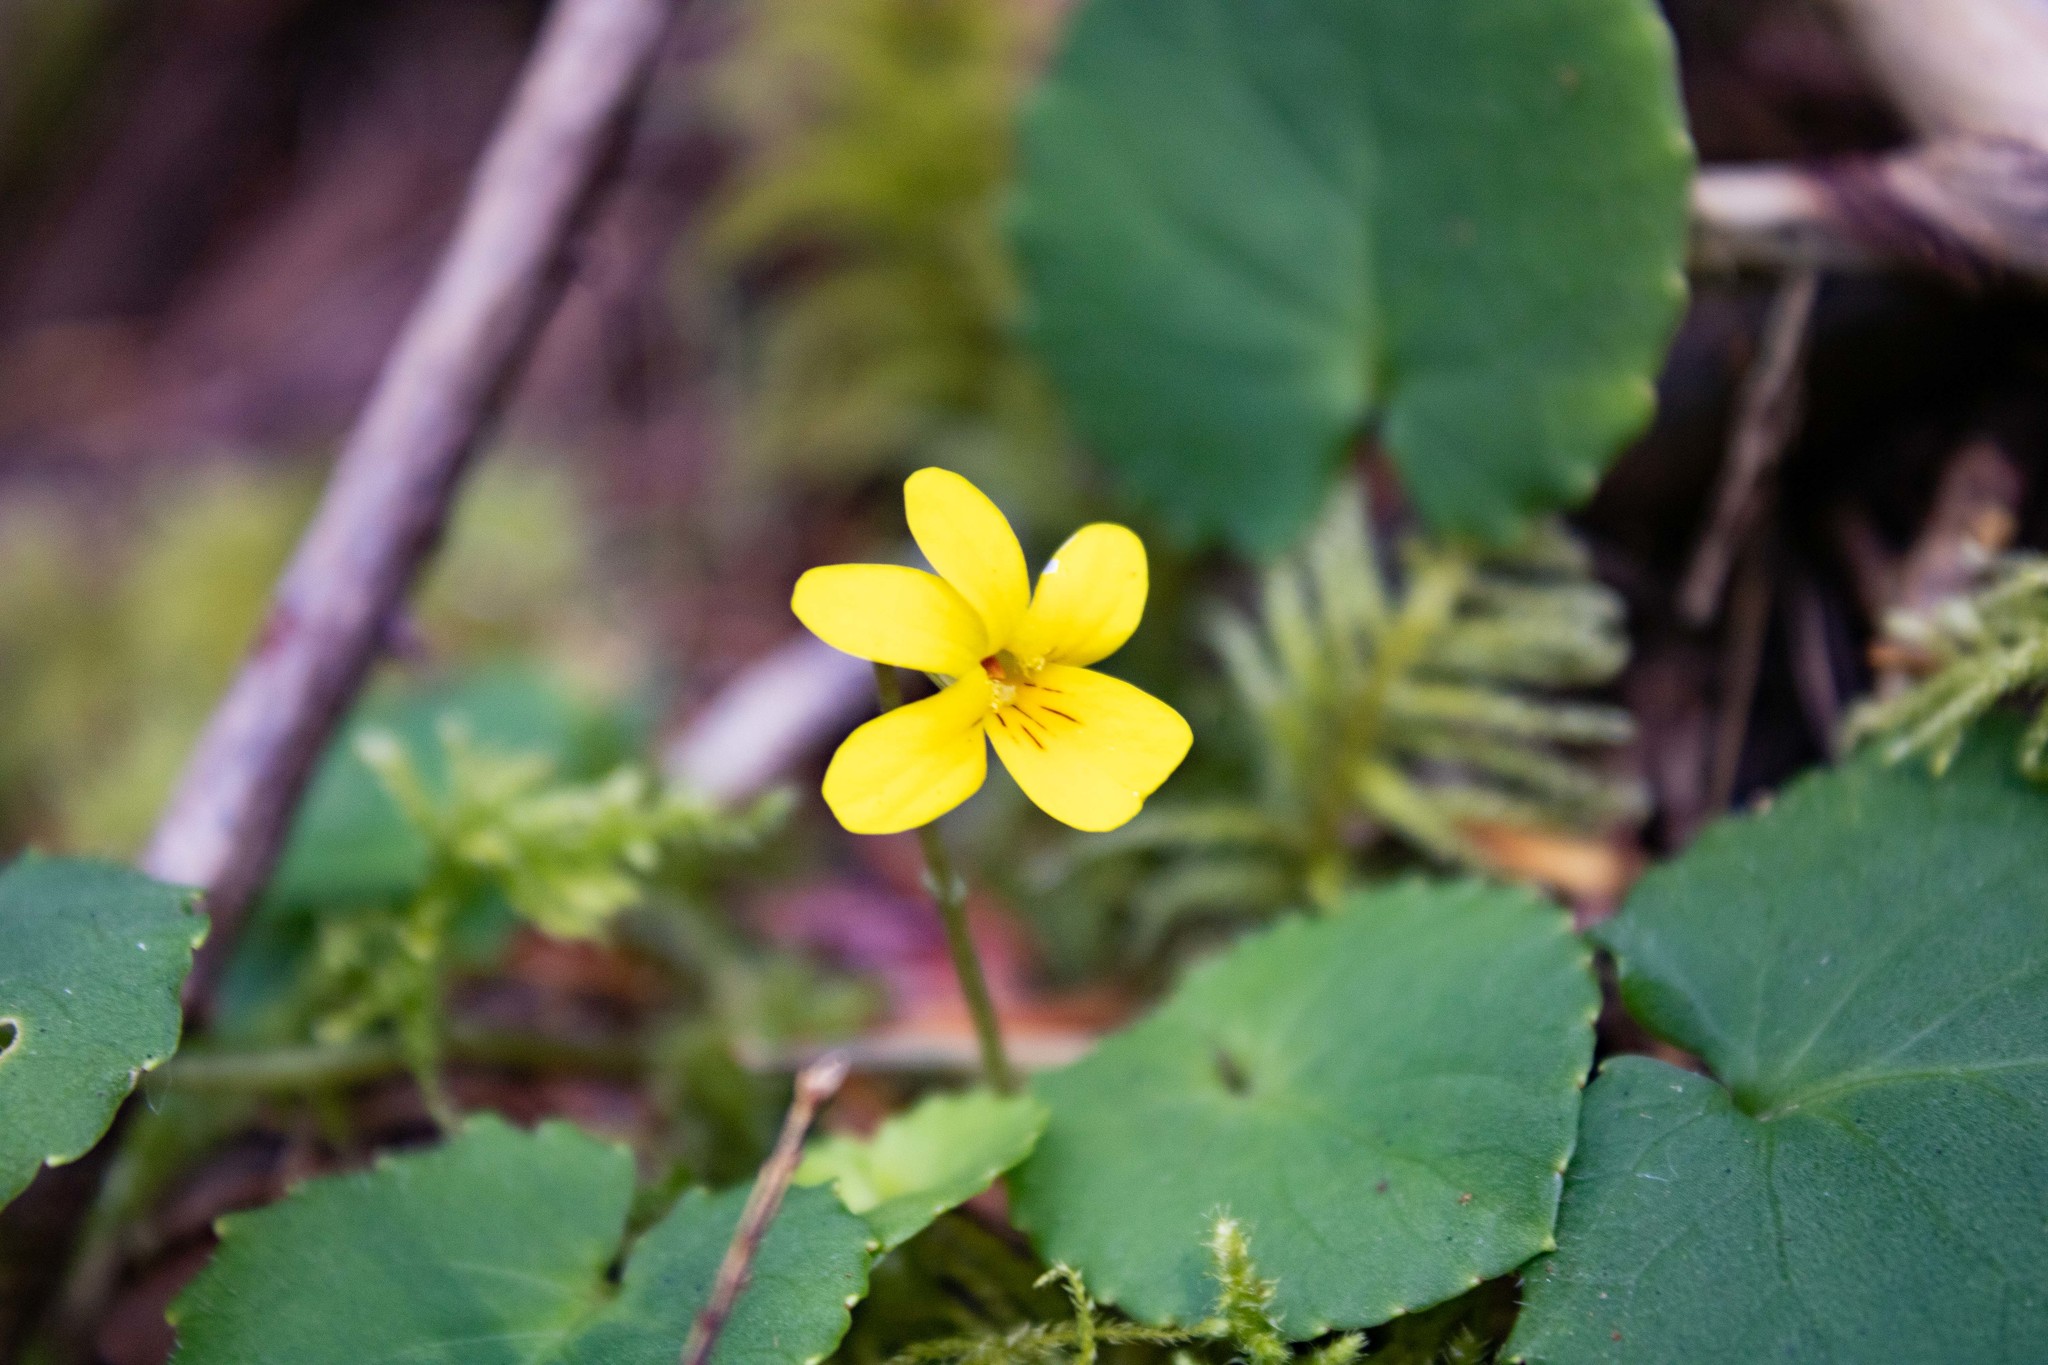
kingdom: Plantae
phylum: Tracheophyta
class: Magnoliopsida
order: Malpighiales
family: Violaceae
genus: Viola
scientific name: Viola sempervirens
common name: Evergreen violet
